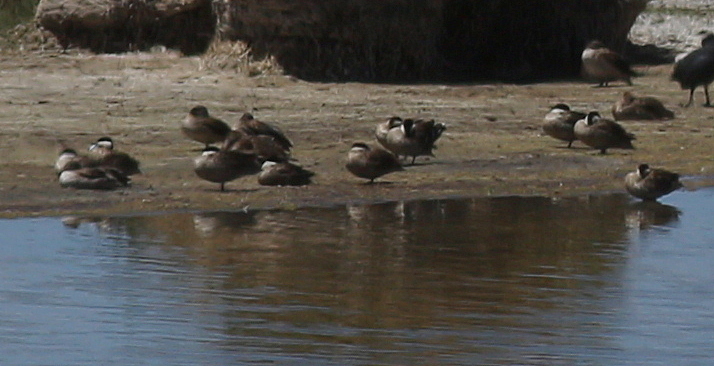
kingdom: Animalia
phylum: Chordata
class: Aves
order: Anseriformes
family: Anatidae
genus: Spatula
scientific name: Spatula puna
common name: Puna teal
